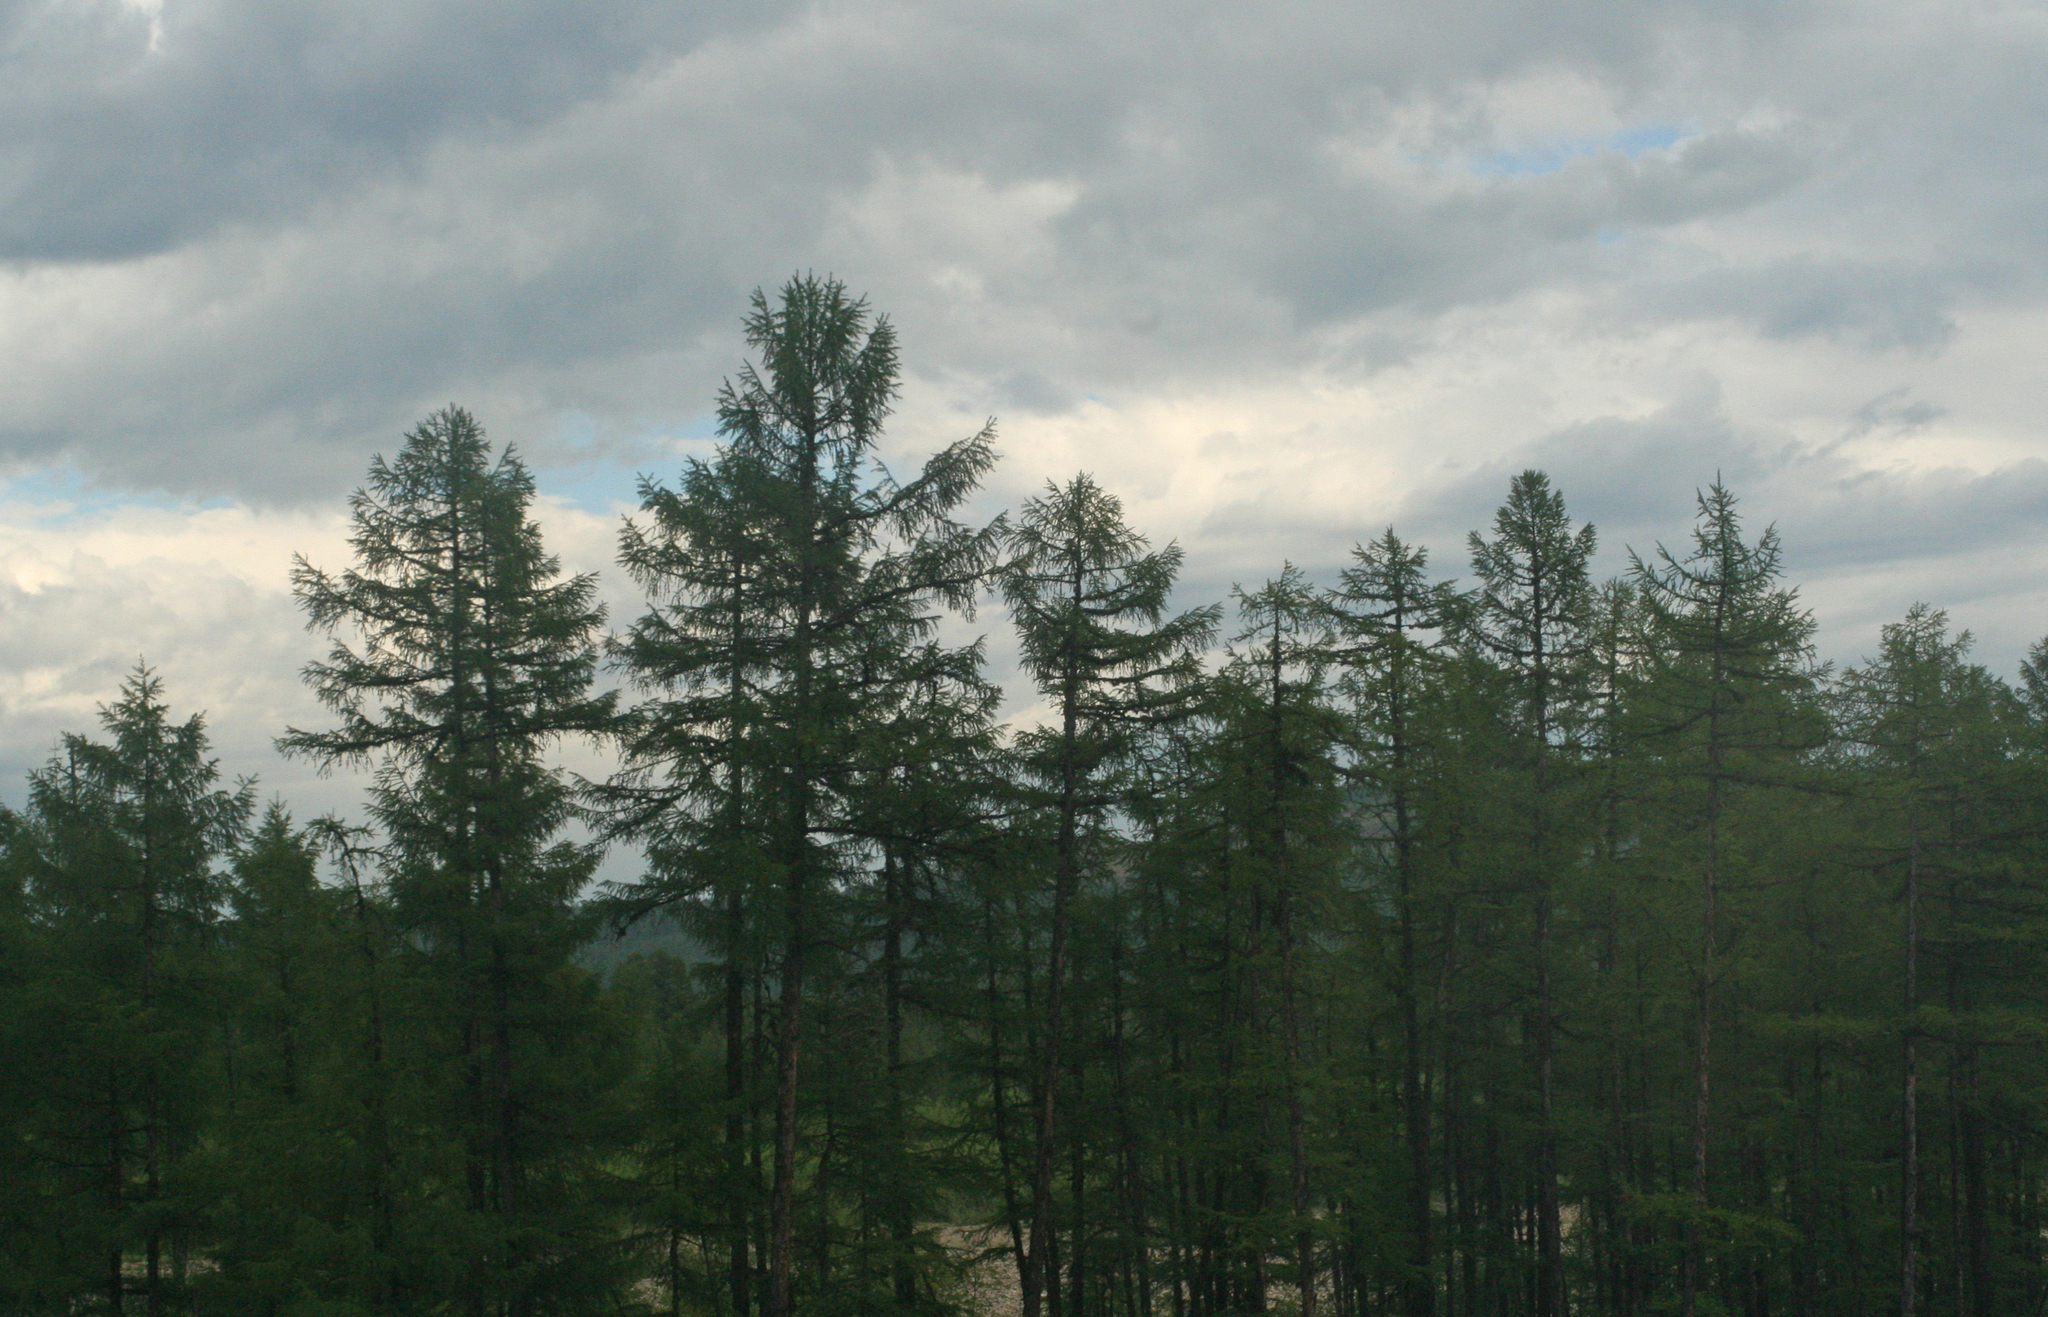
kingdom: Plantae
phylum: Tracheophyta
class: Pinopsida
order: Pinales
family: Pinaceae
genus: Larix
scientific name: Larix gmelinii
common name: Dahurian larch
